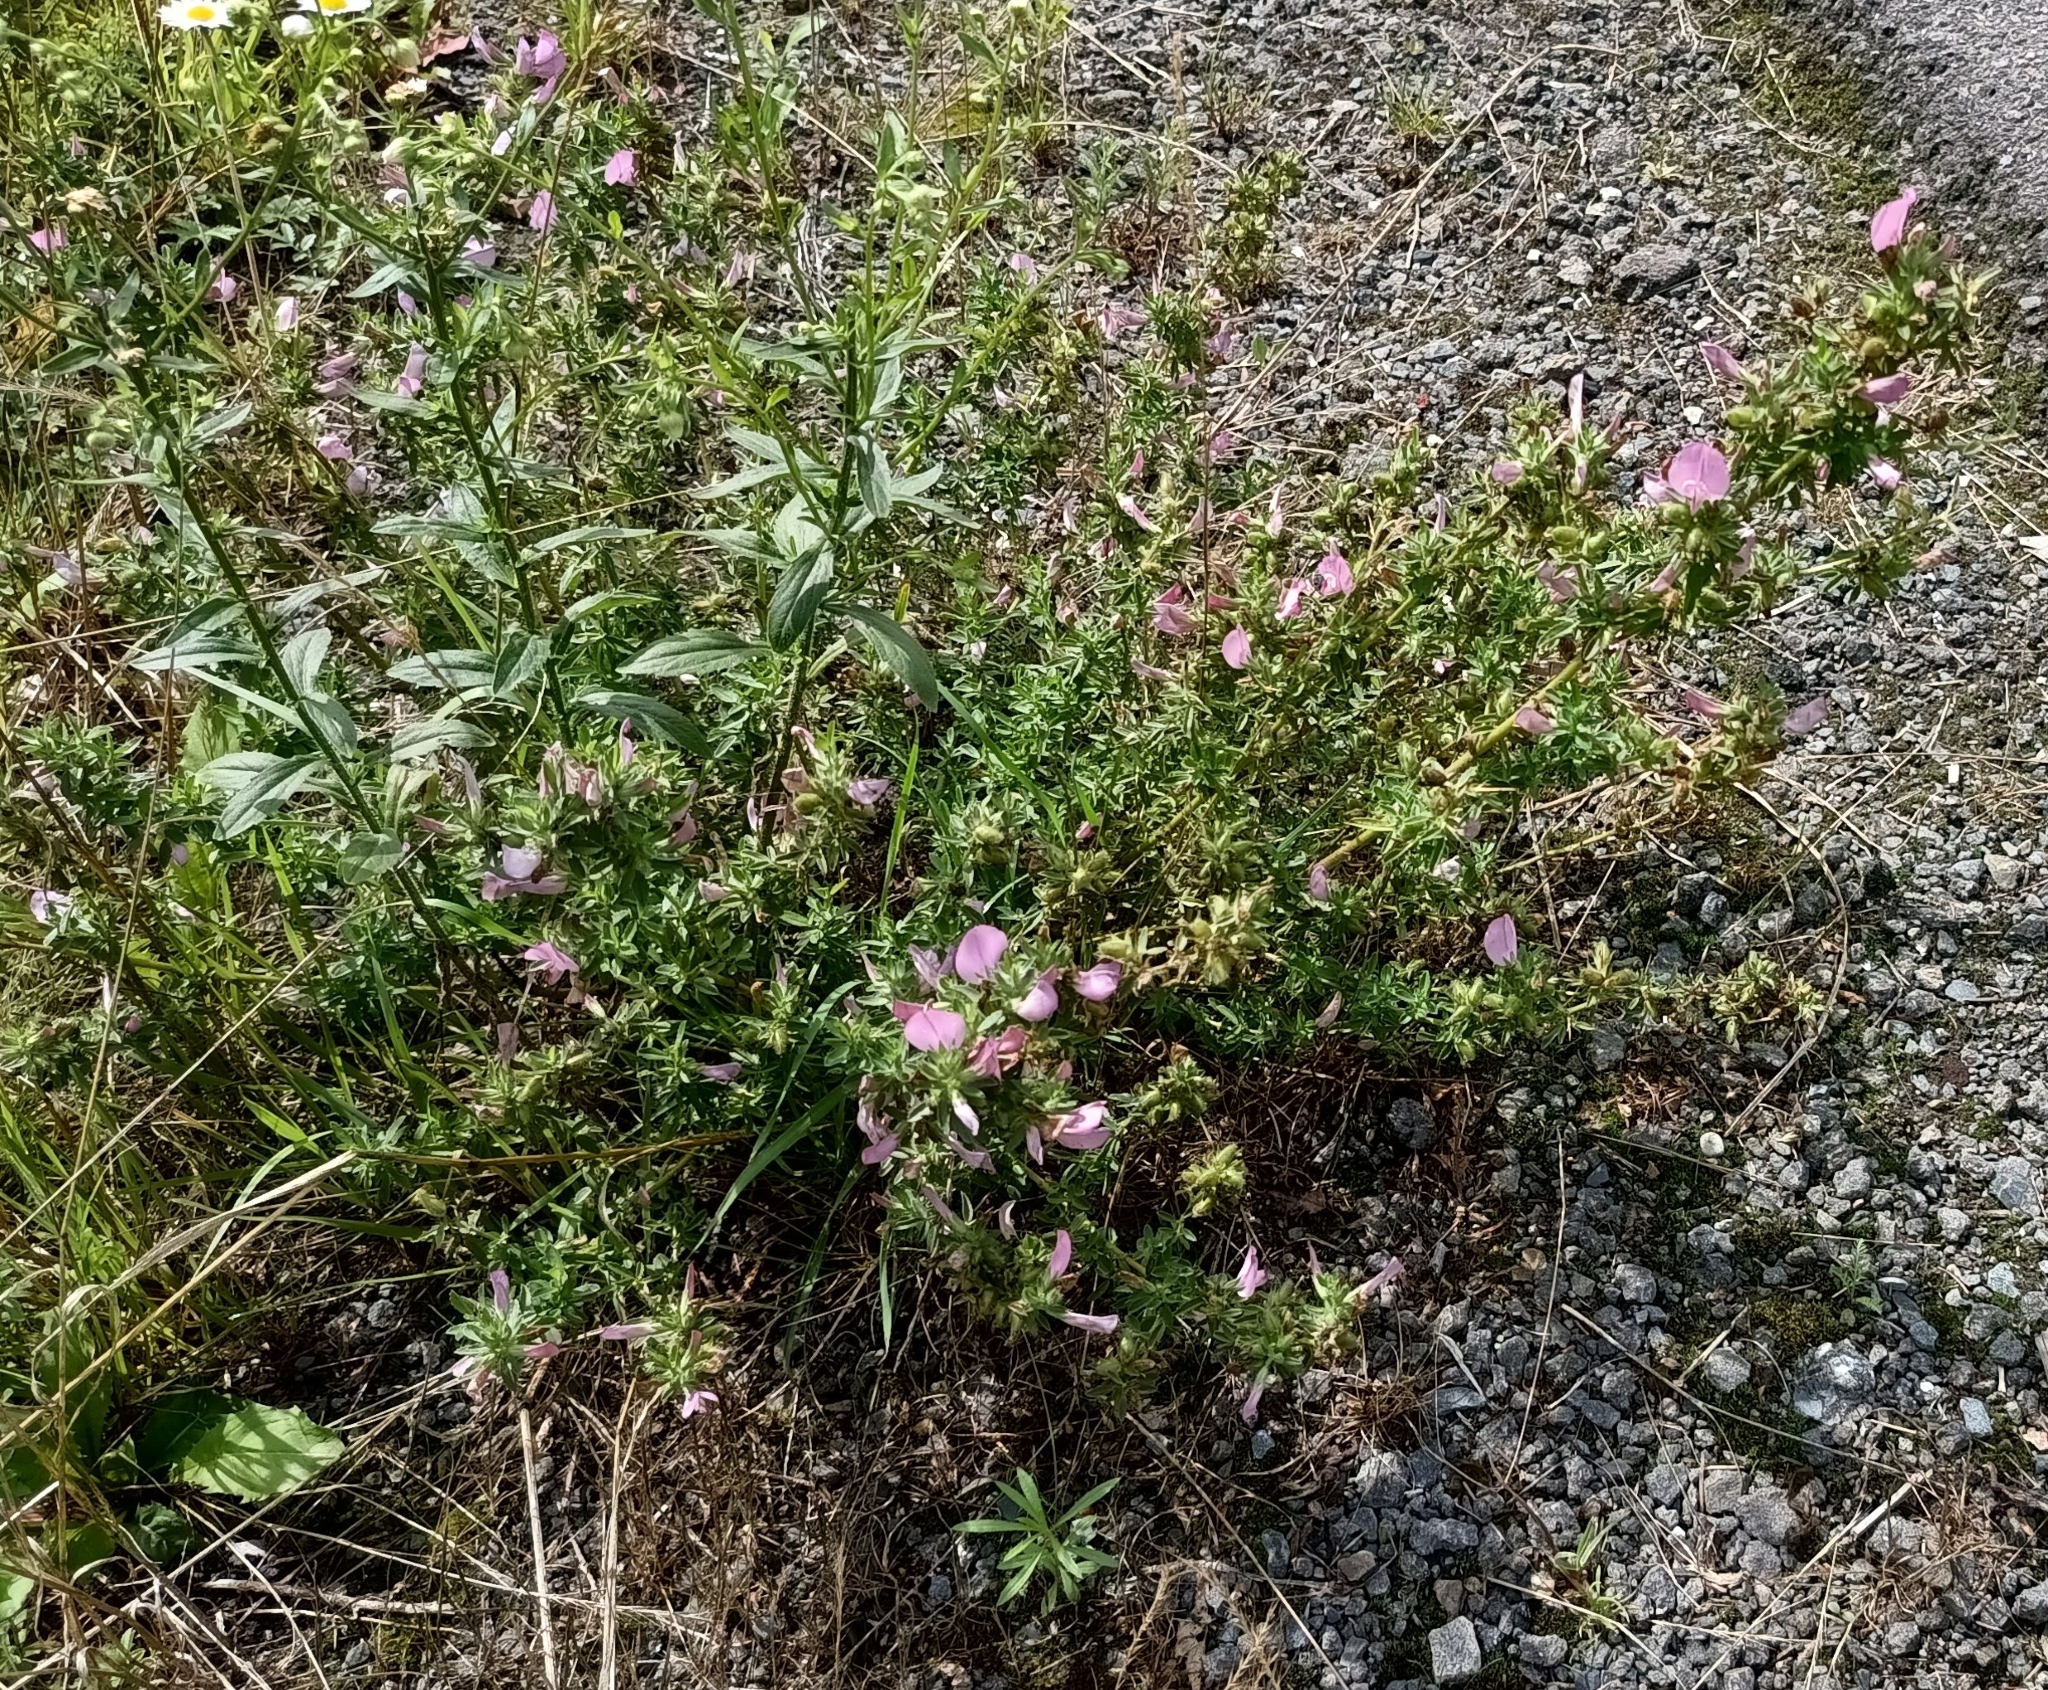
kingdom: Plantae
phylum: Tracheophyta
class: Magnoliopsida
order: Fabales
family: Fabaceae
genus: Ononis
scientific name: Ononis spinosa
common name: Spiny restharrow
